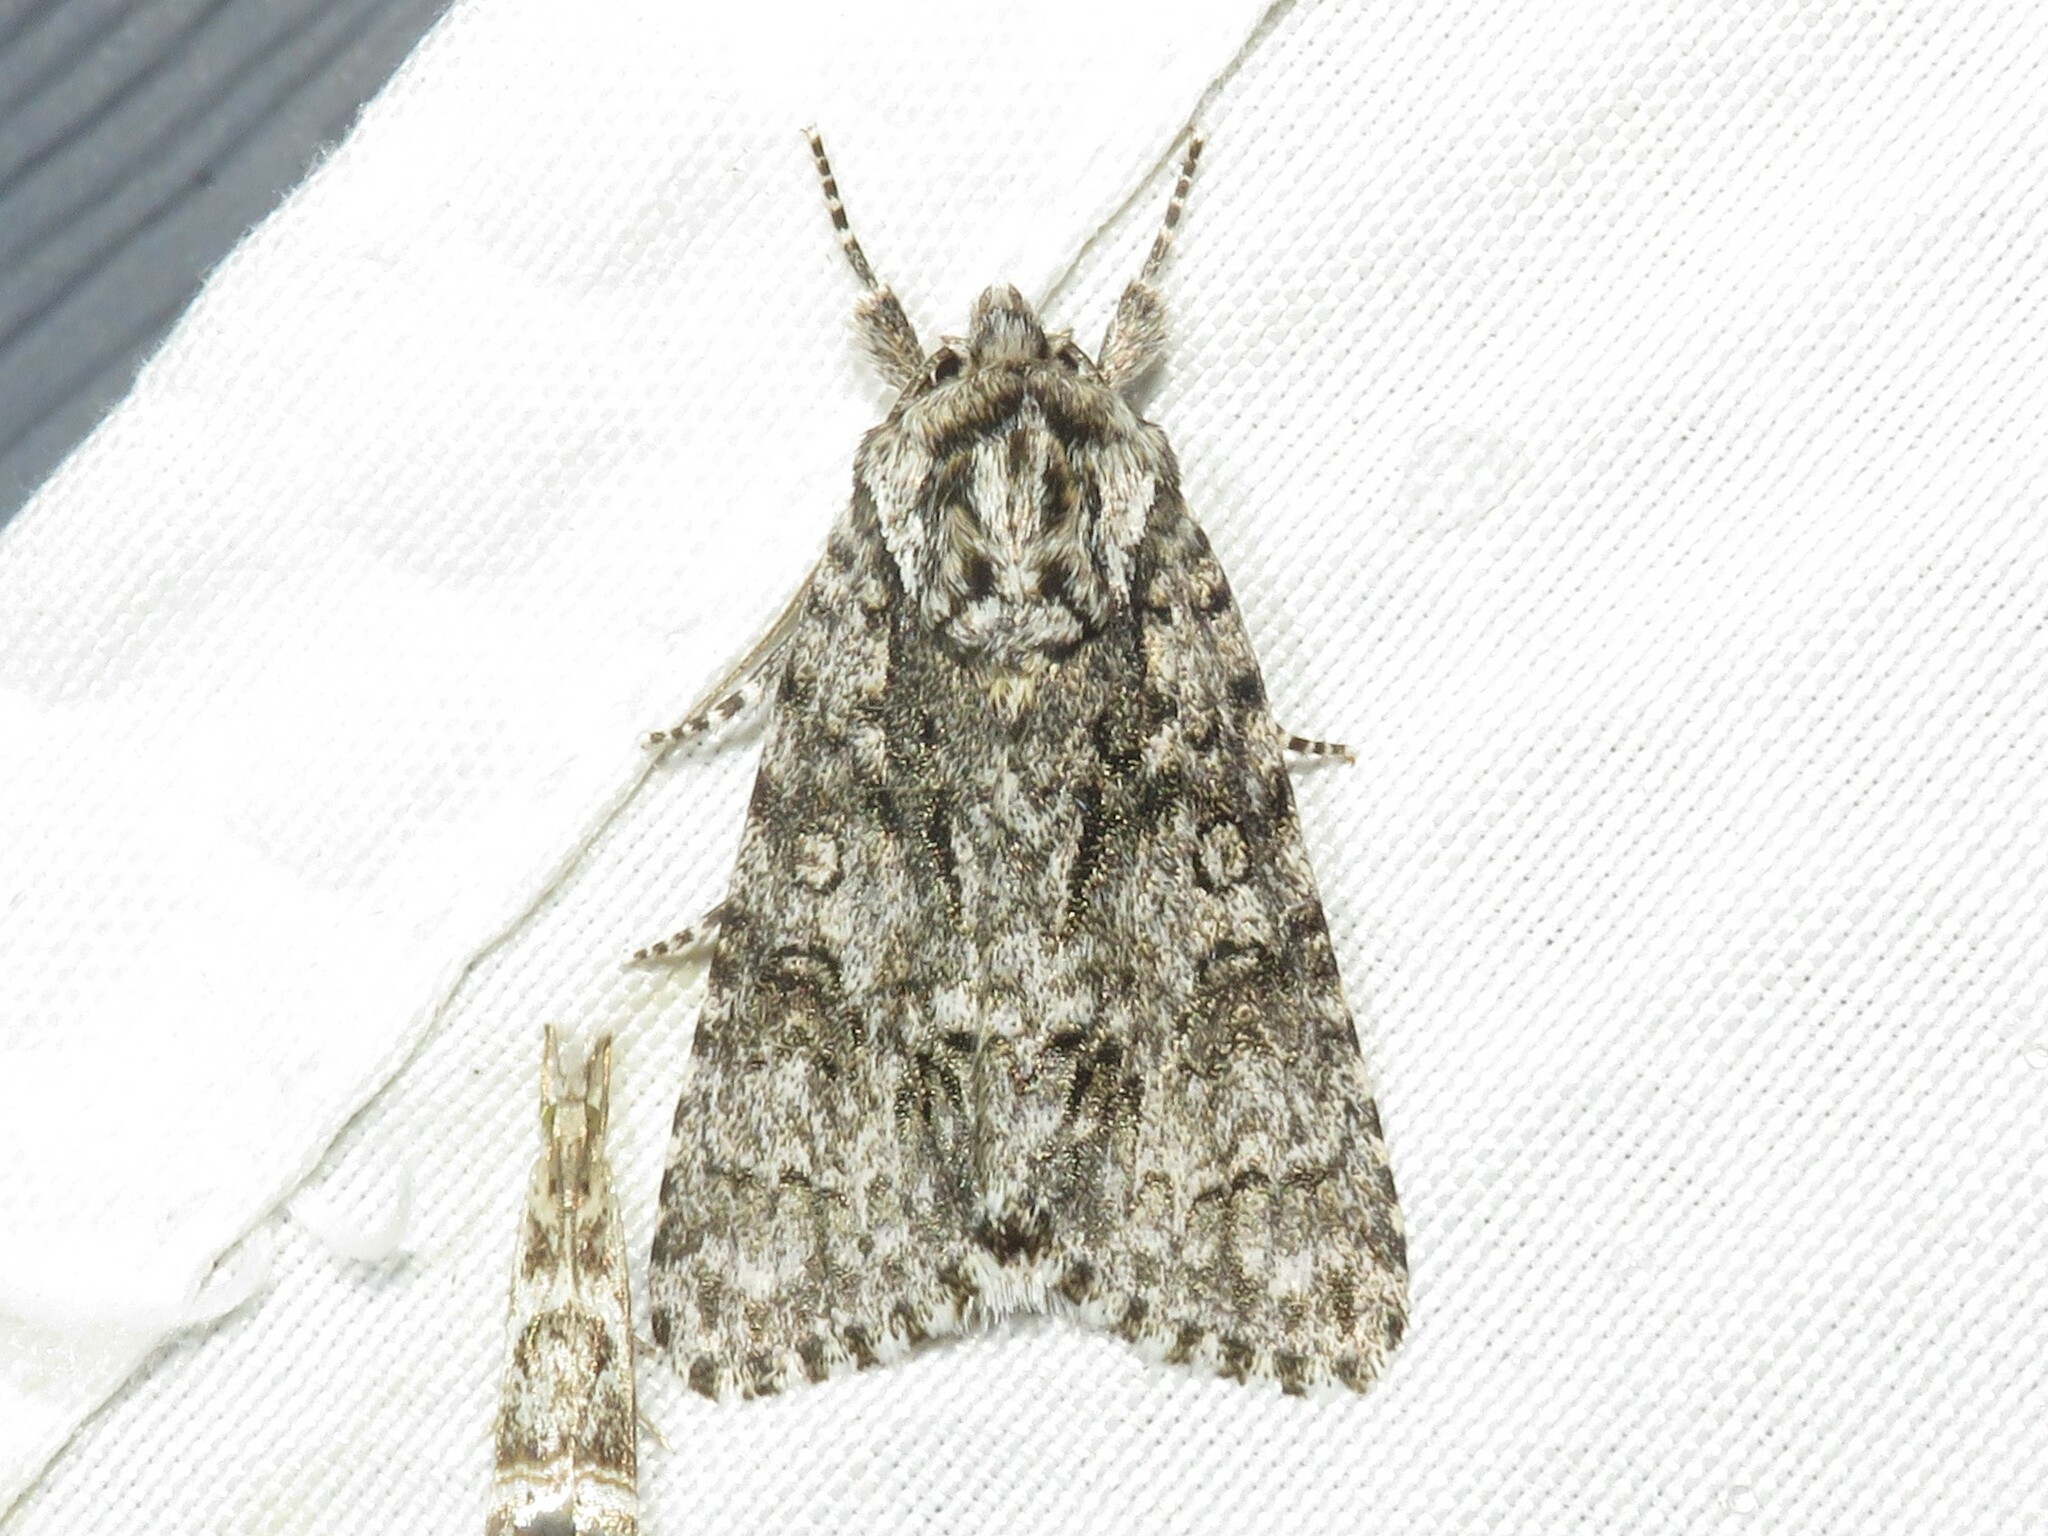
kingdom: Animalia
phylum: Arthropoda
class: Insecta
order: Lepidoptera
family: Noctuidae
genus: Acronicta
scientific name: Acronicta impressa
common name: Impressed dagger
